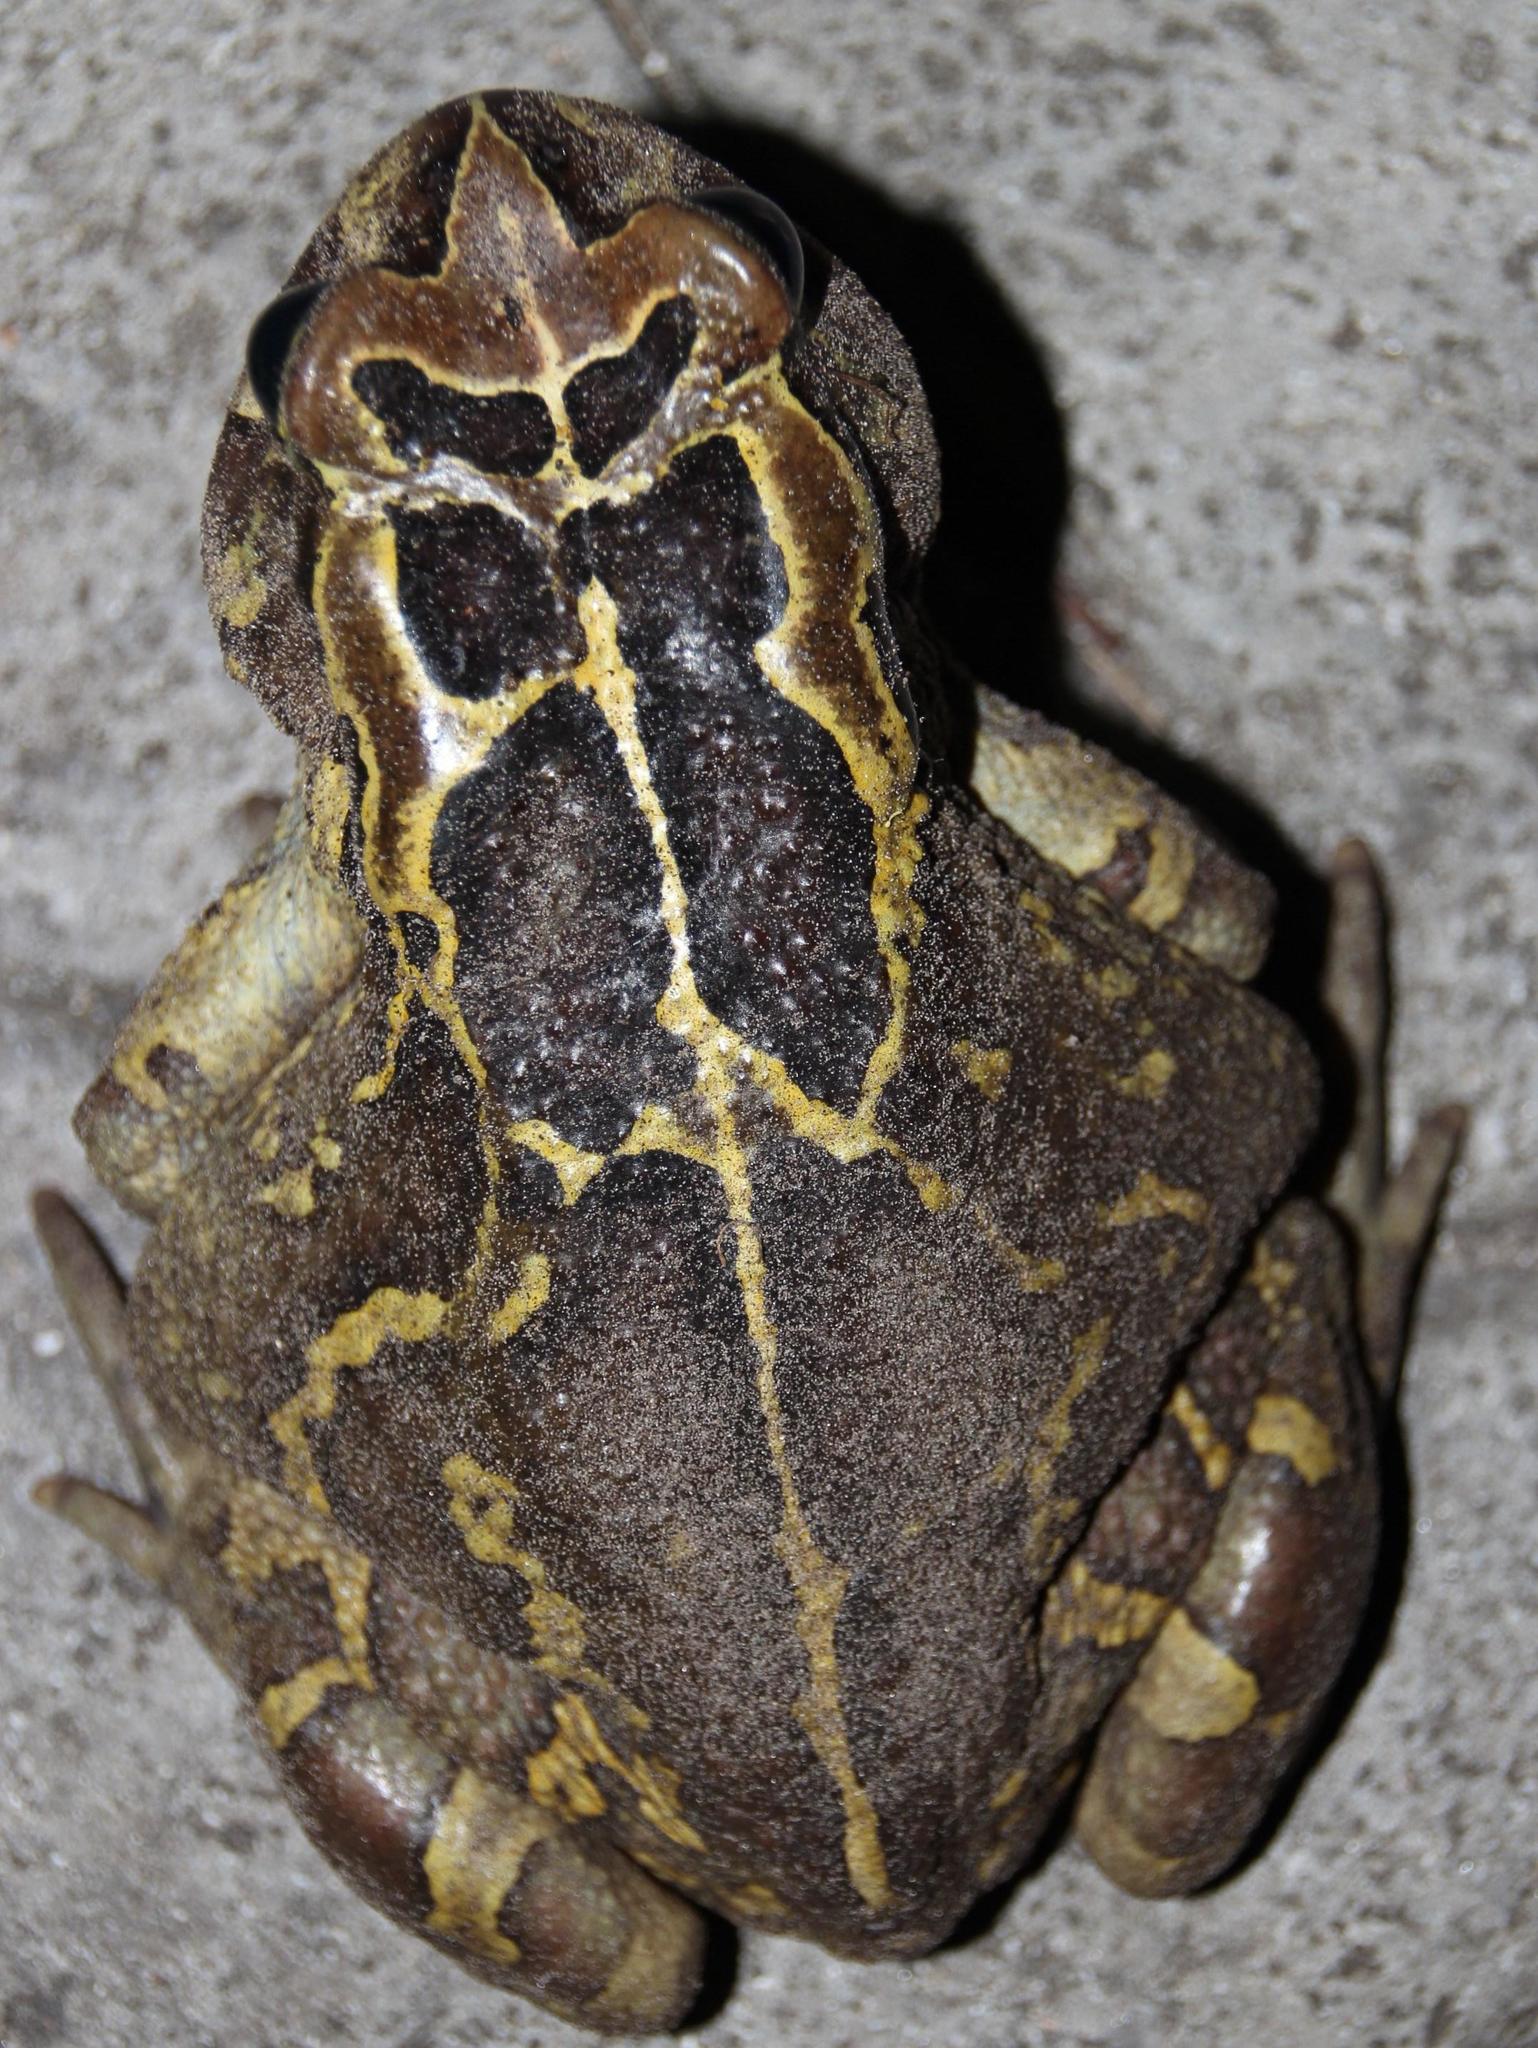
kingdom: Animalia
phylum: Chordata
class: Amphibia
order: Anura
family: Bufonidae
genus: Sclerophrys
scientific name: Sclerophrys pantherina
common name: Panther toad
